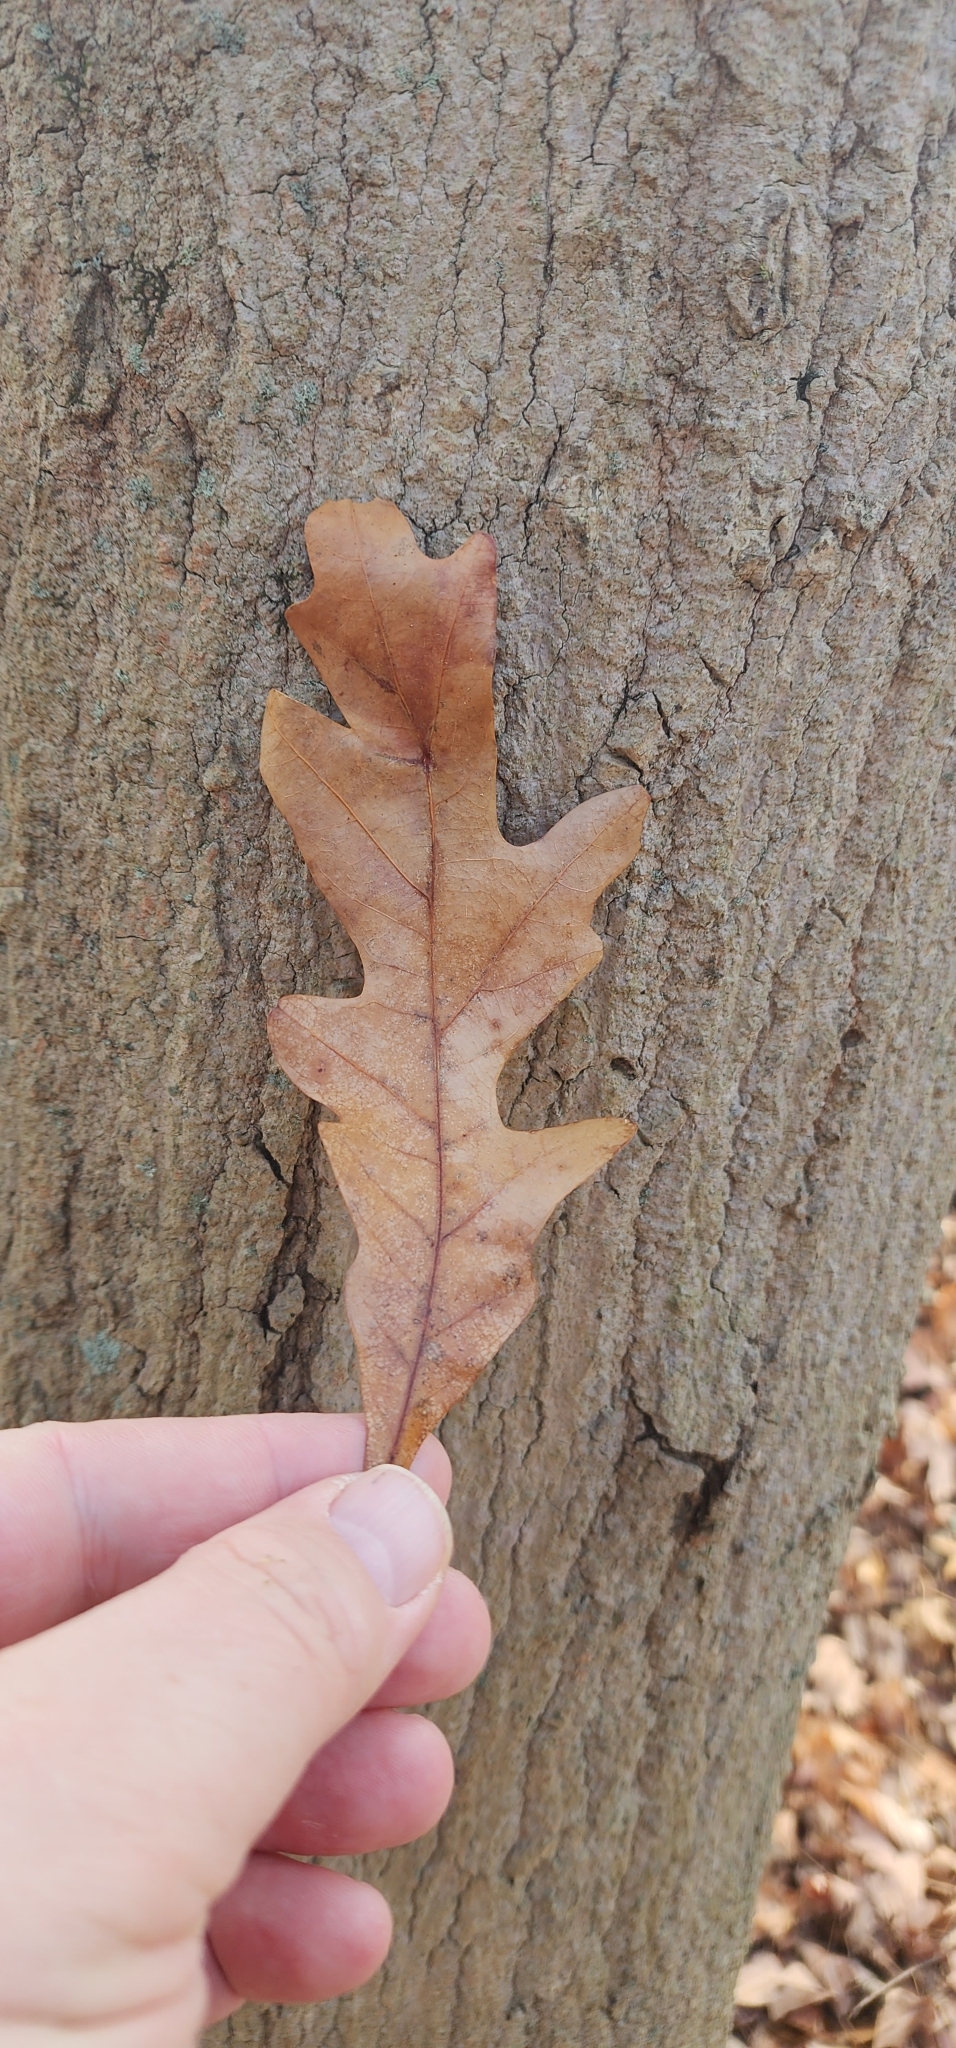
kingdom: Plantae
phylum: Tracheophyta
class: Magnoliopsida
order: Fagales
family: Fagaceae
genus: Quercus
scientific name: Quercus alba
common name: White oak
